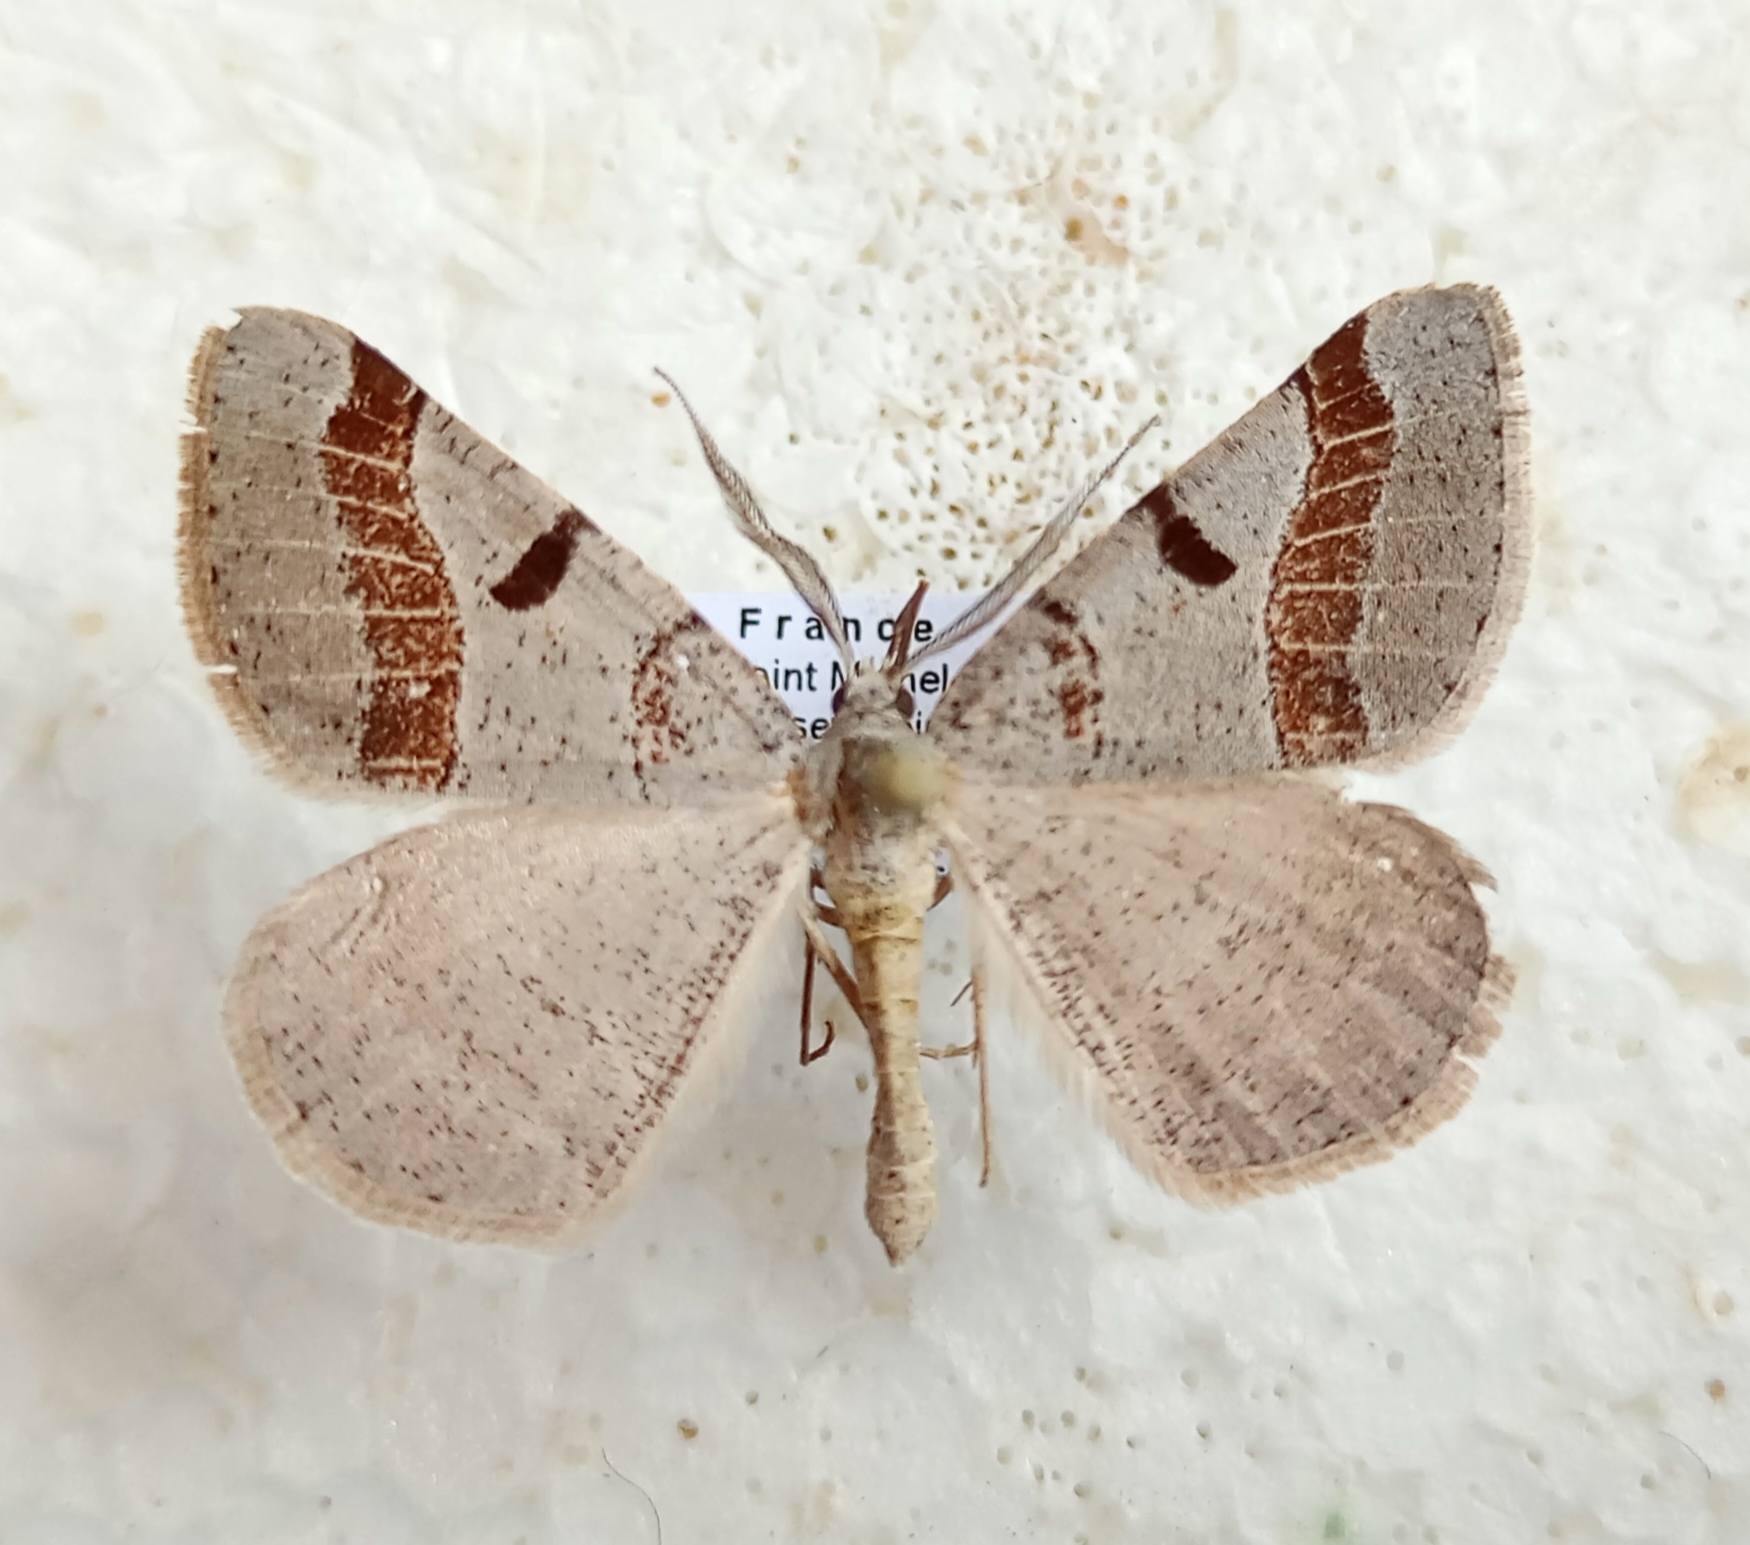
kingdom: Animalia
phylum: Arthropoda
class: Insecta
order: Lepidoptera
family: Geometridae
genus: Itame
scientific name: Itame vincularia
